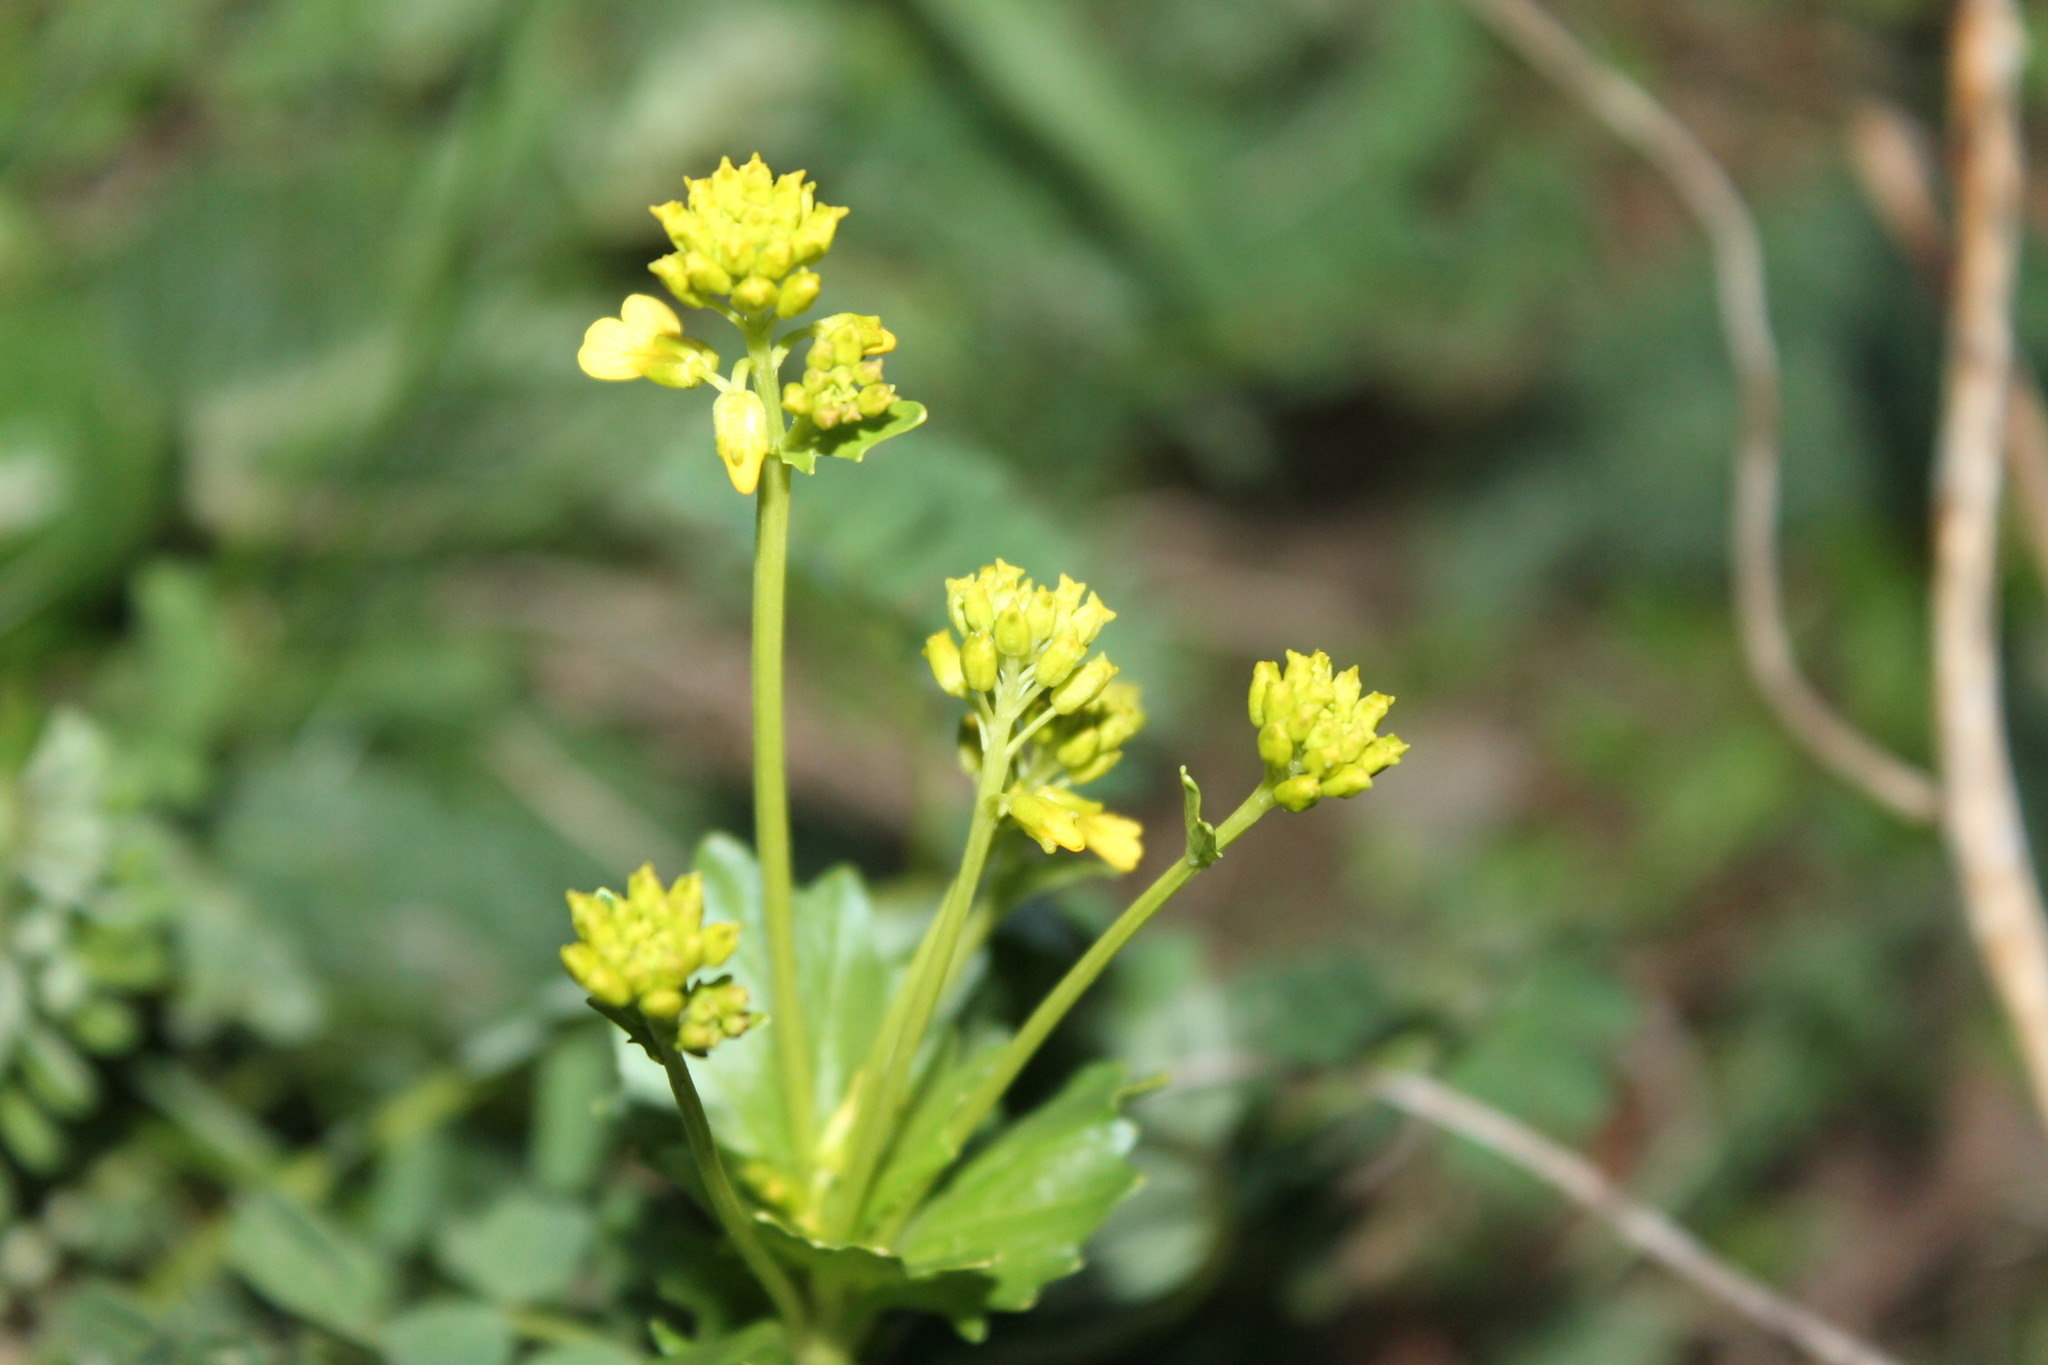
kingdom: Plantae
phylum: Tracheophyta
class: Magnoliopsida
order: Brassicales
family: Brassicaceae
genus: Barbarea
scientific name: Barbarea vulgaris
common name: Cressy-greens
